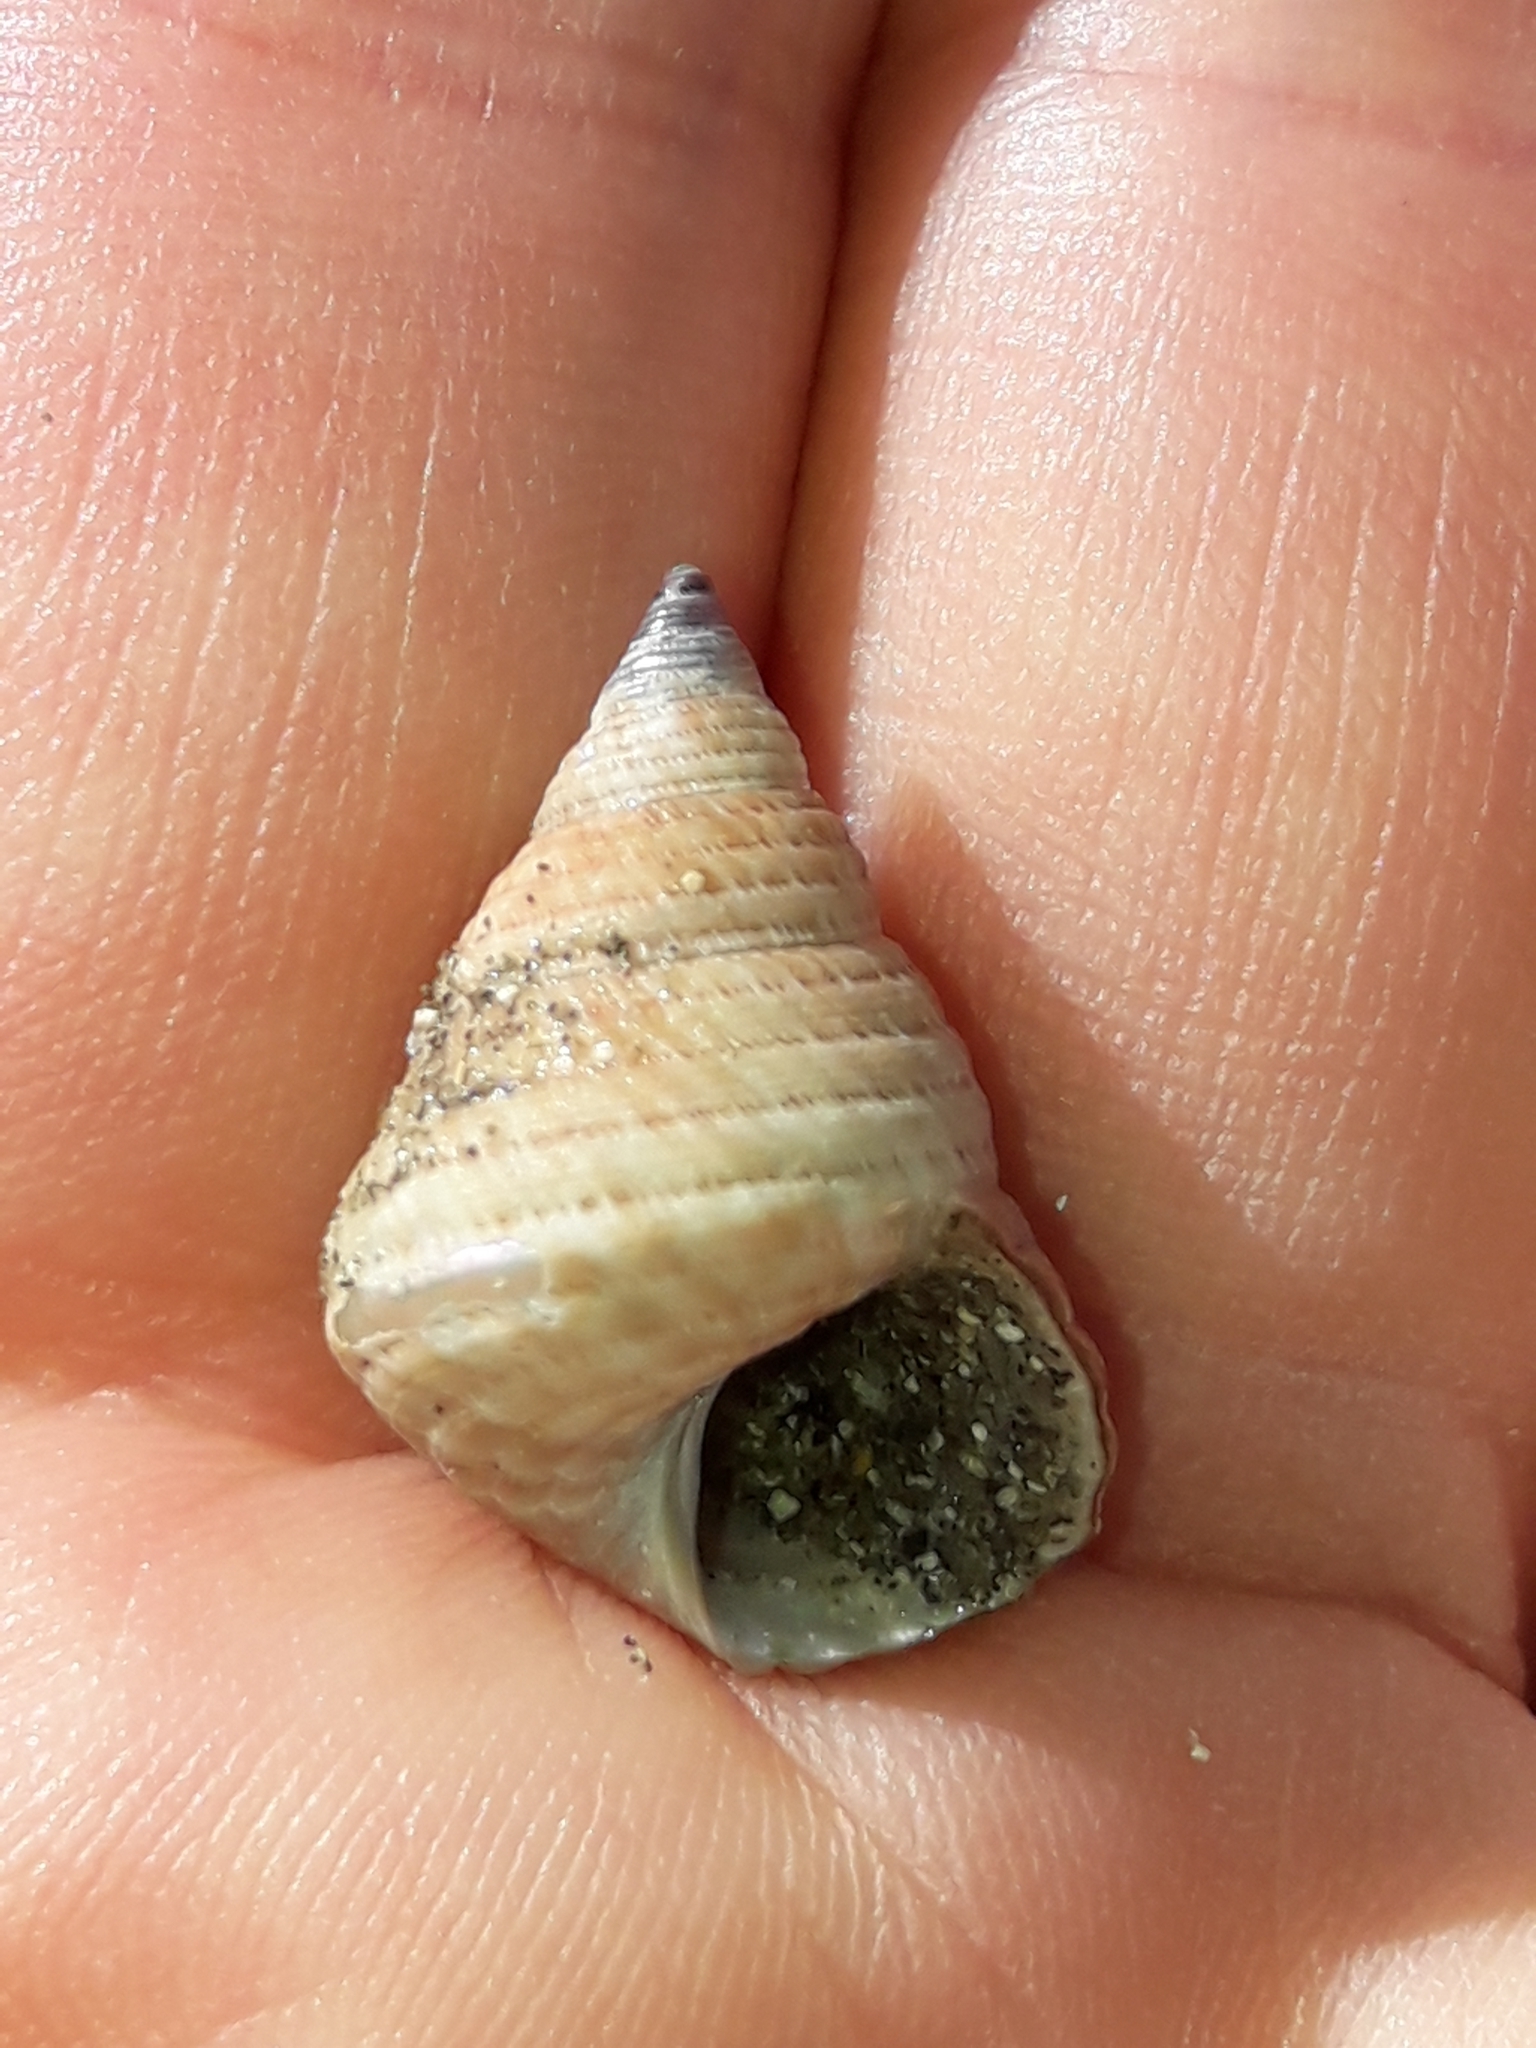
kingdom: Animalia
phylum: Mollusca
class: Gastropoda
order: Trochida
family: Trochidae
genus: Micrelenchus
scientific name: Micrelenchus purpureus
